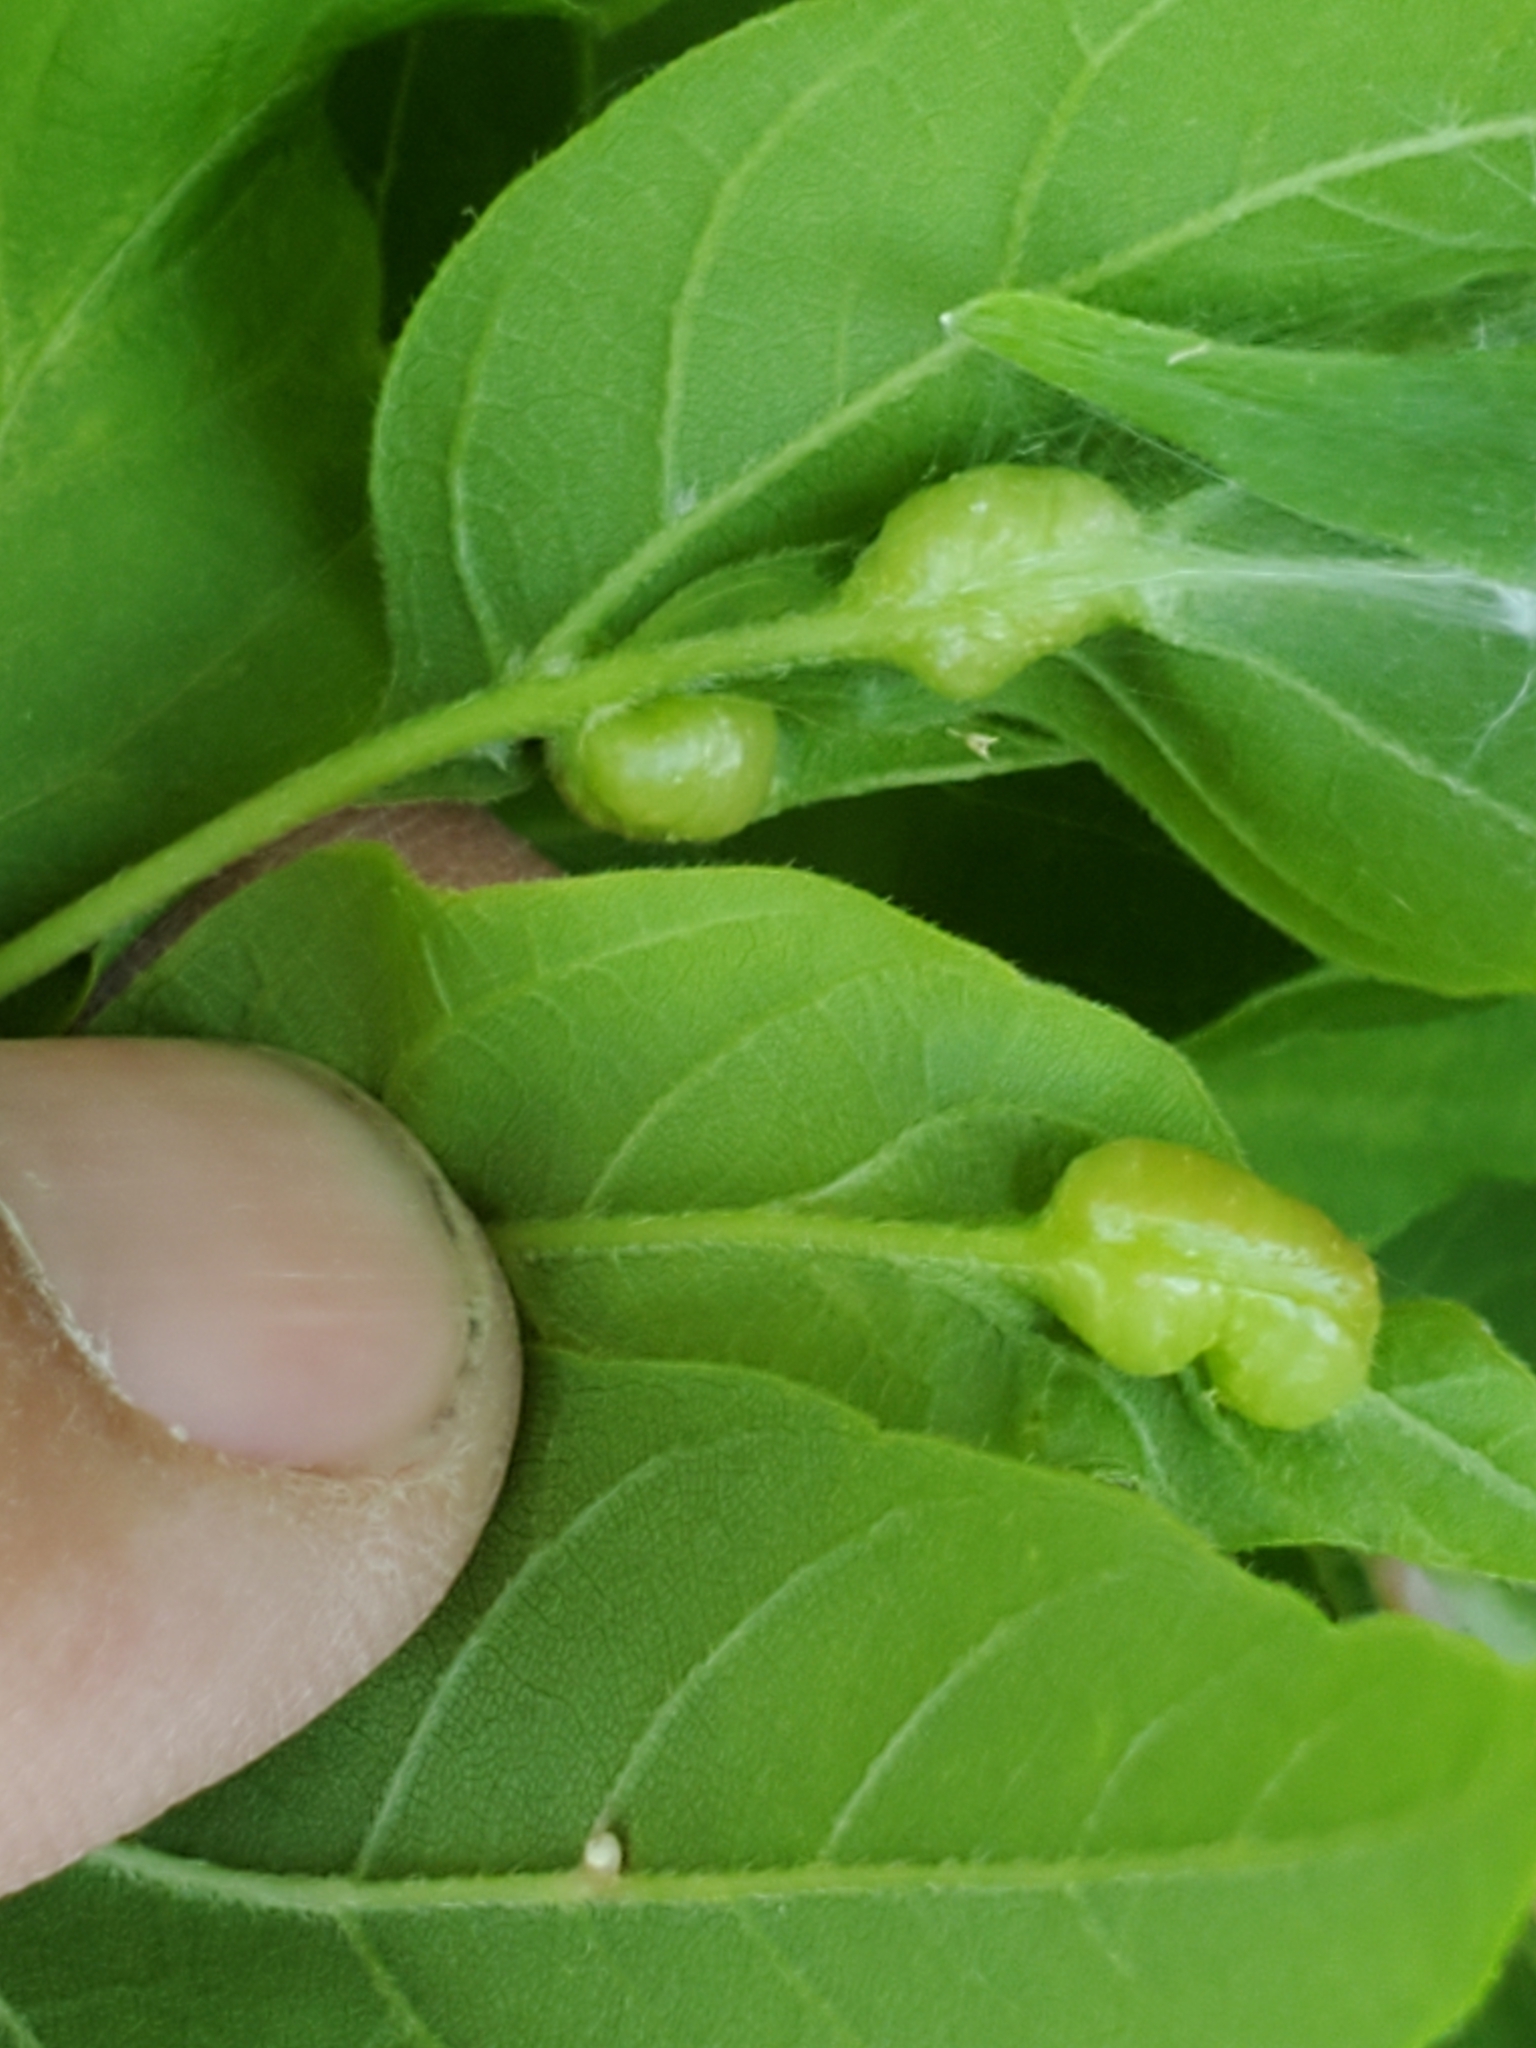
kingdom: Animalia
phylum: Arthropoda
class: Insecta
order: Diptera
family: Cecidomyiidae
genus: Contarinia
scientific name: Contarinia negundinis
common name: Boxelder budgall midge
